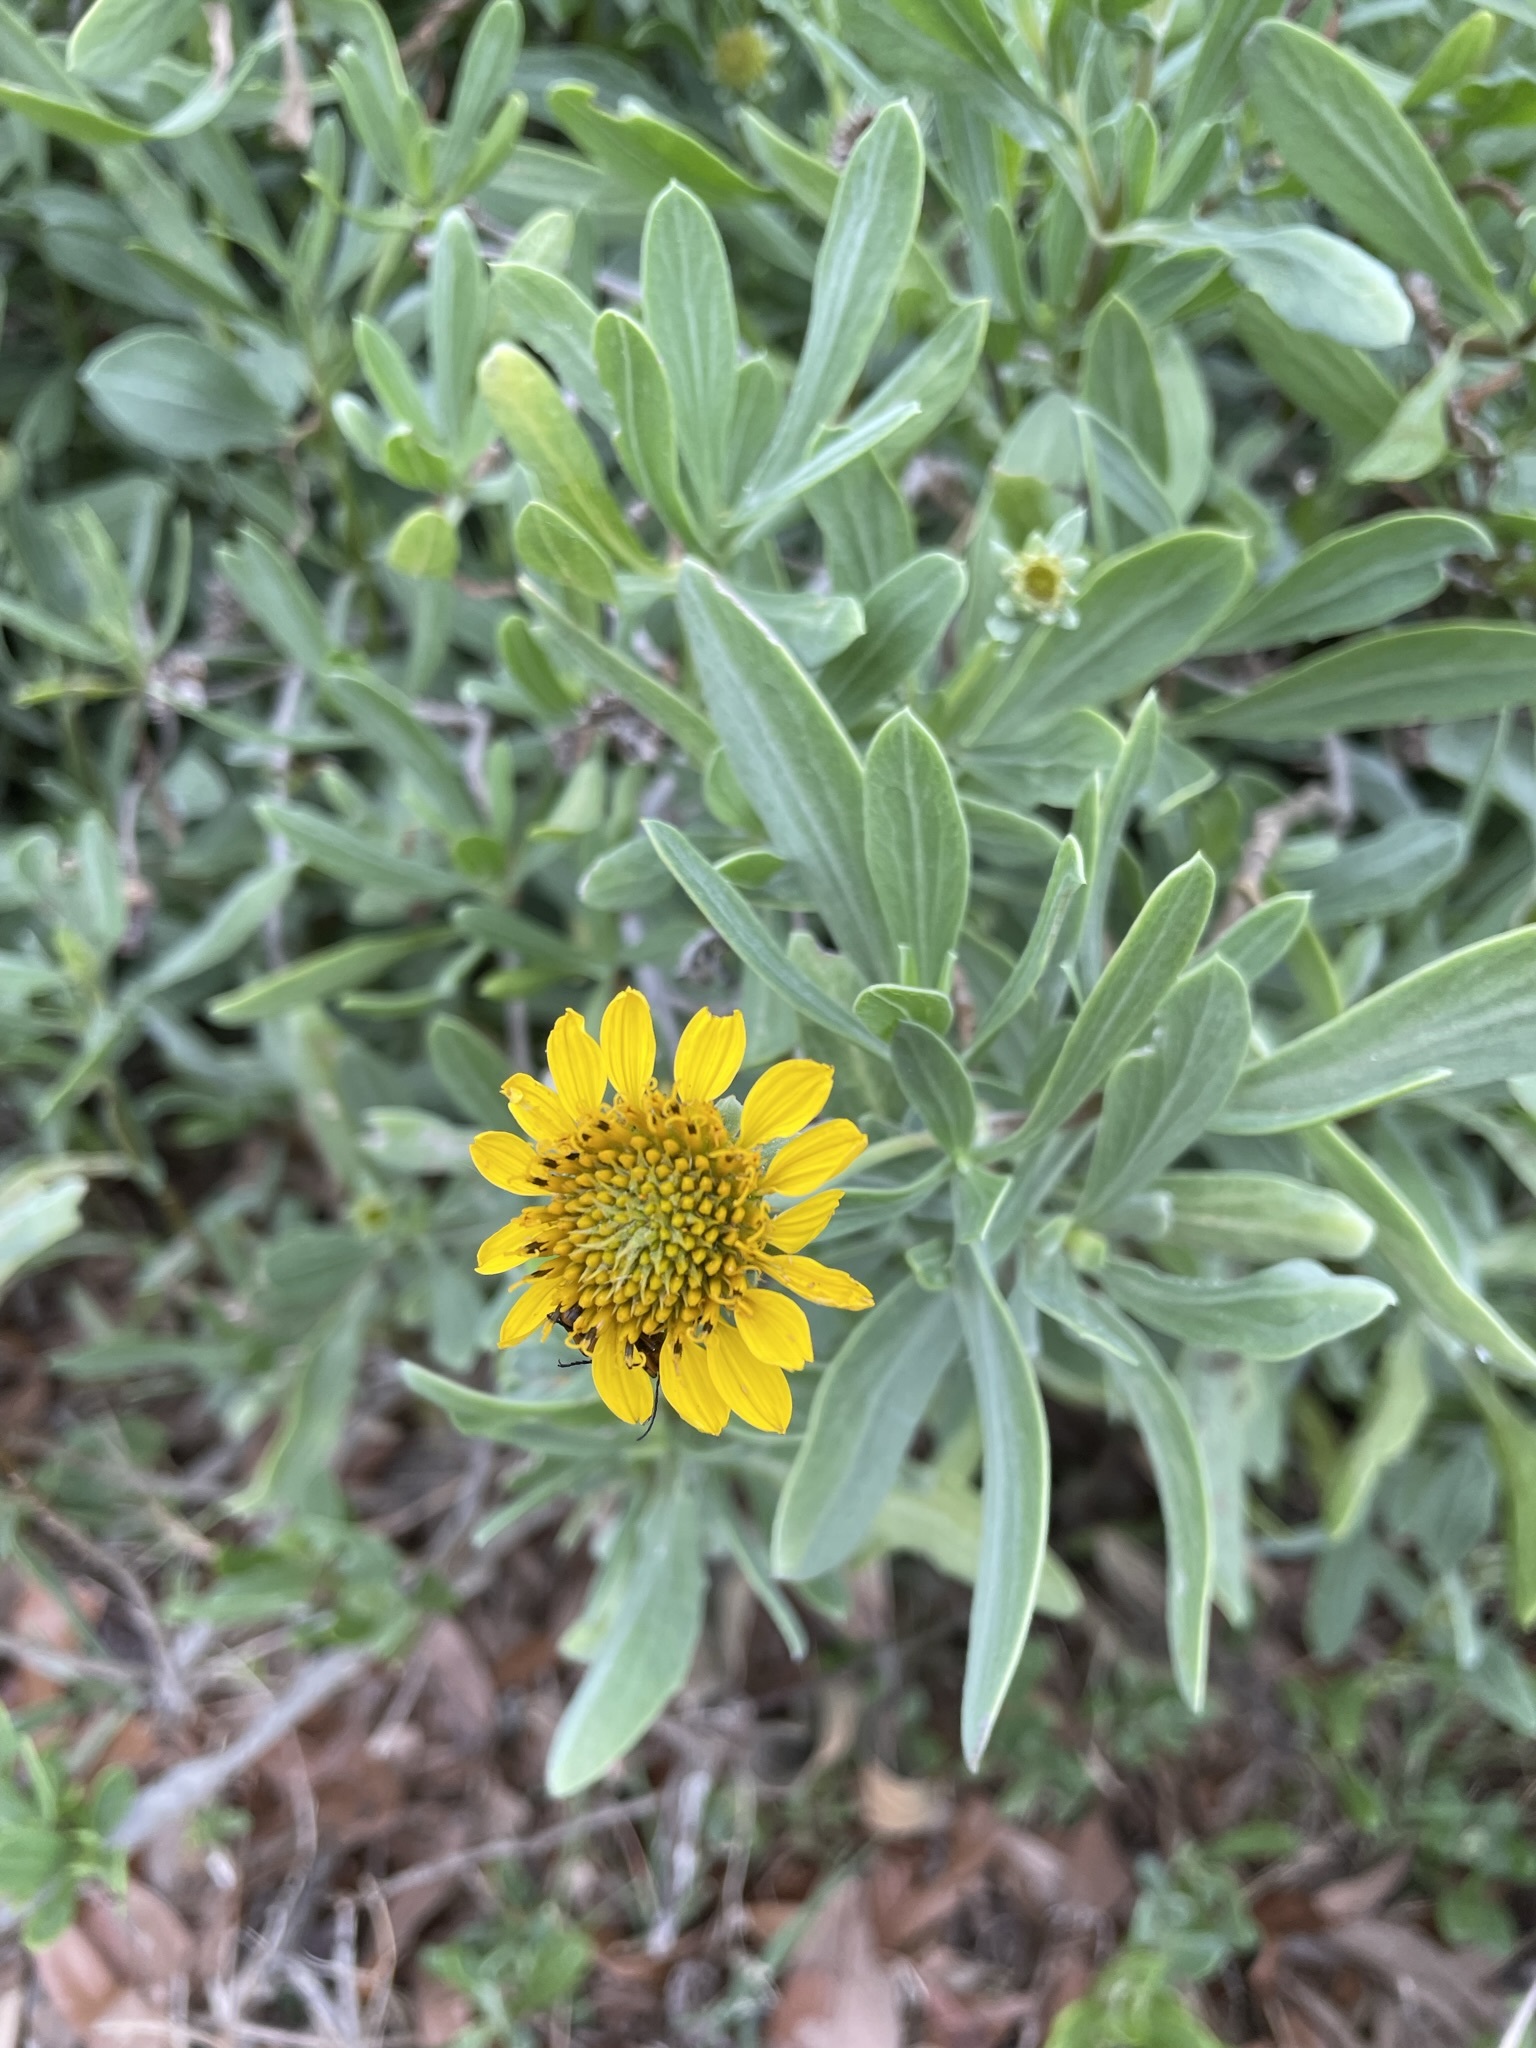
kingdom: Plantae
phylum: Tracheophyta
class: Magnoliopsida
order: Asterales
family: Asteraceae
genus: Borrichia
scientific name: Borrichia frutescens
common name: Sea oxeye
